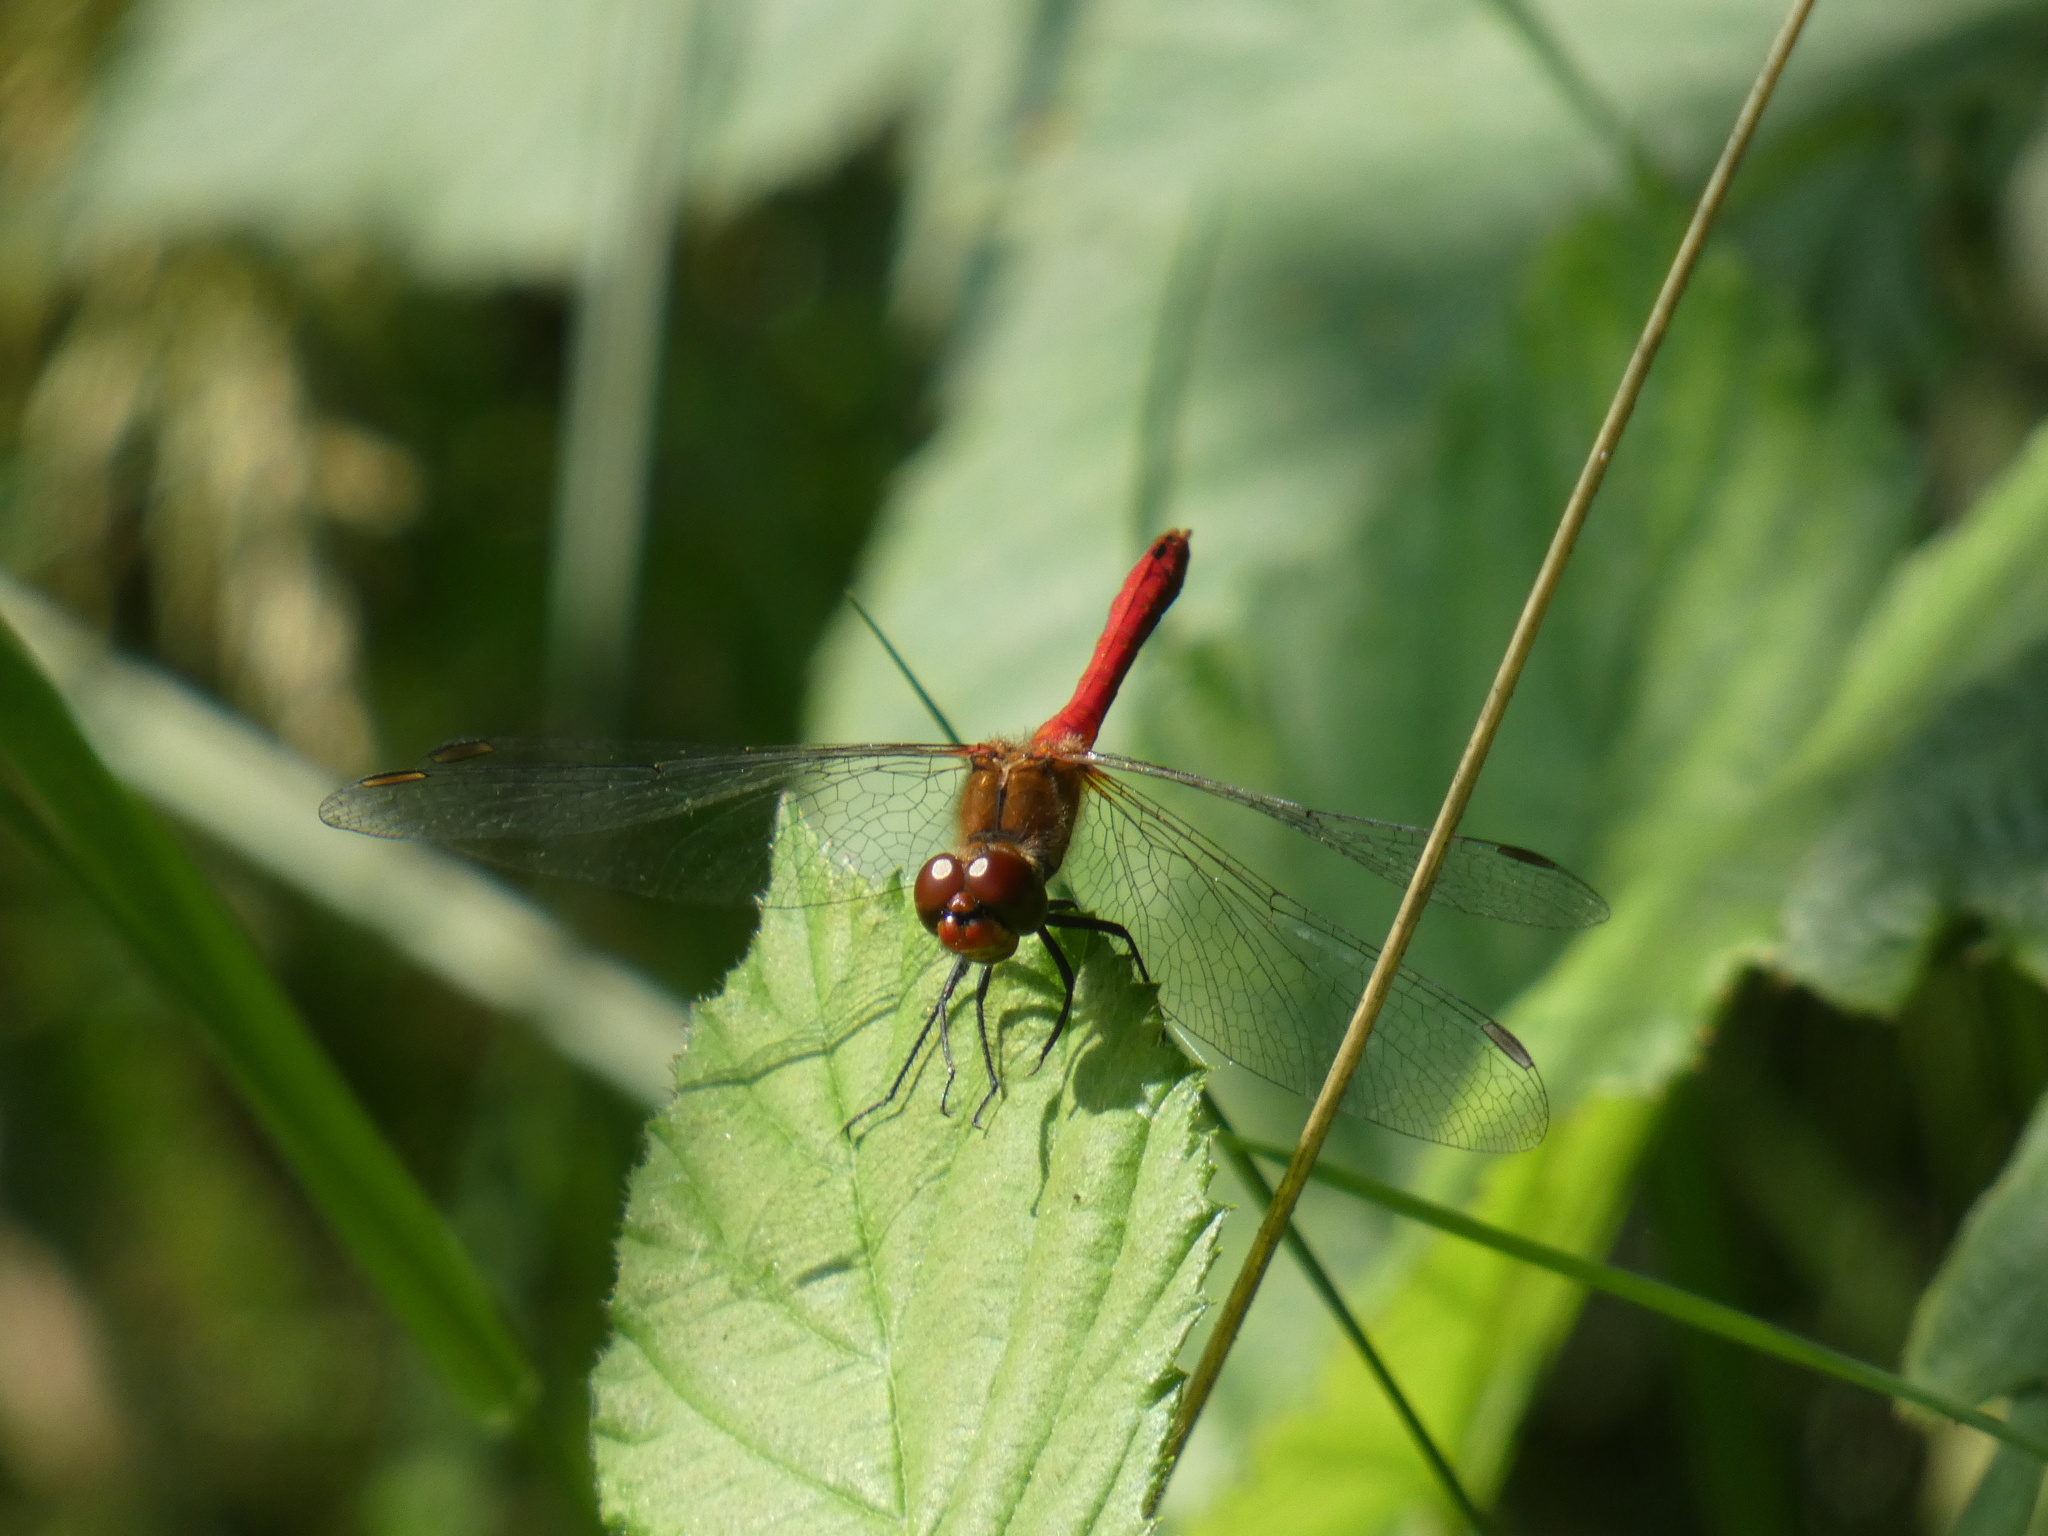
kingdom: Animalia
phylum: Arthropoda
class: Insecta
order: Odonata
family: Libellulidae
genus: Sympetrum
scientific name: Sympetrum sanguineum
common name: Ruddy darter
